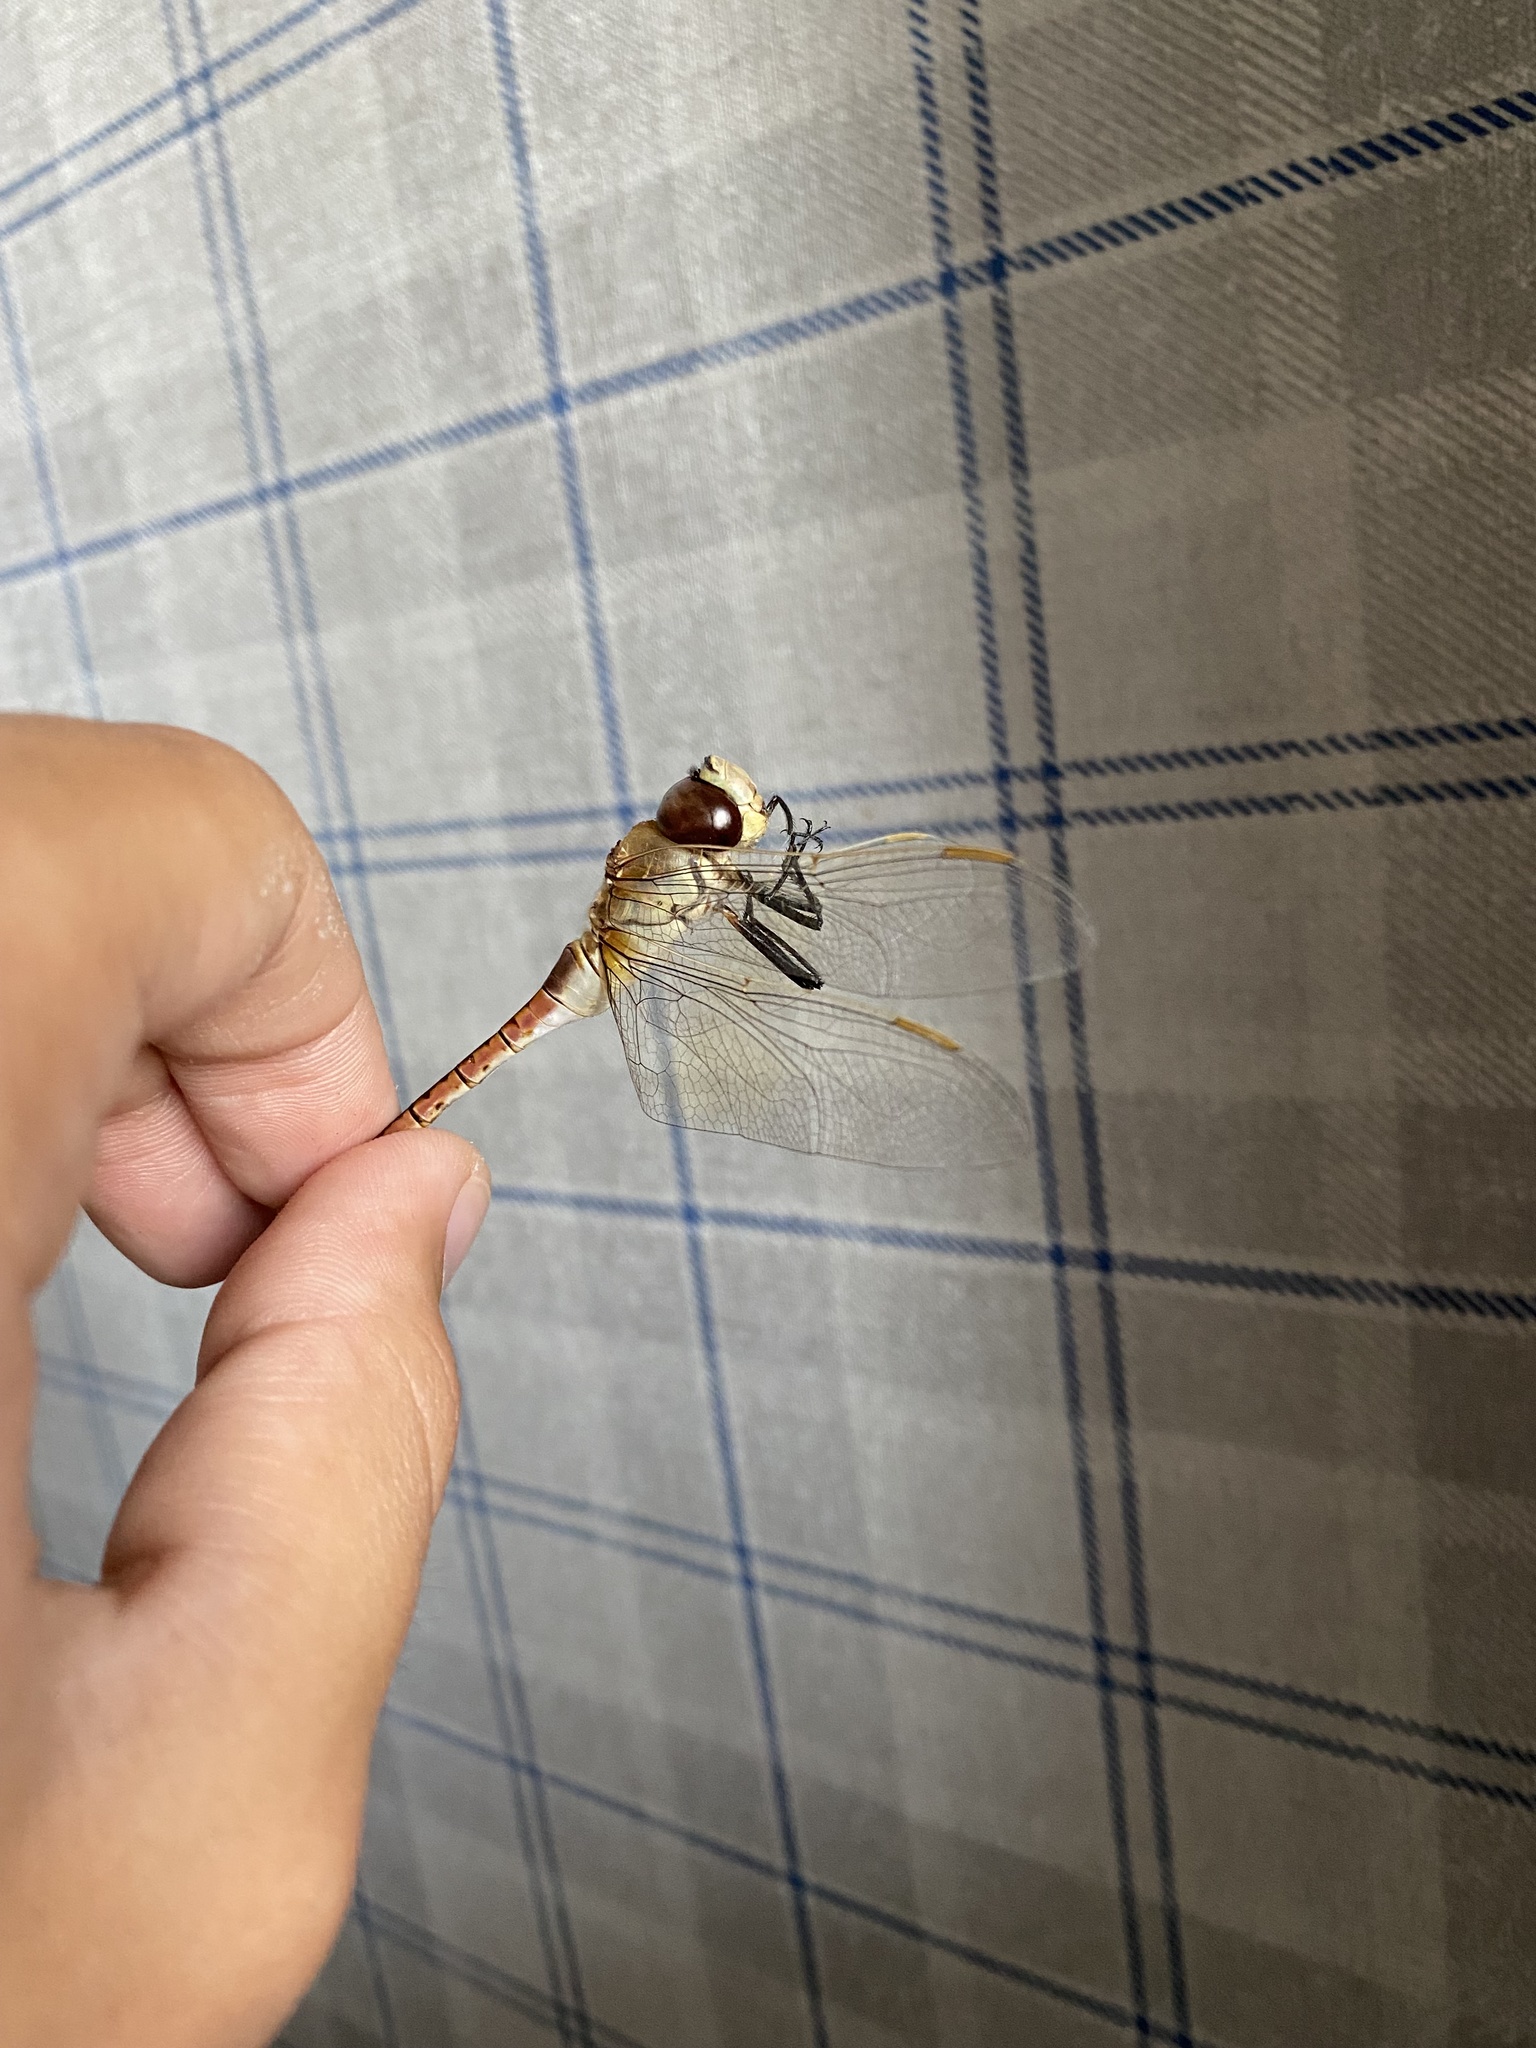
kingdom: Animalia
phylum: Arthropoda
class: Insecta
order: Odonata
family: Aeshnidae
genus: Anax
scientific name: Anax ephippiger
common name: Vagrant emperor
